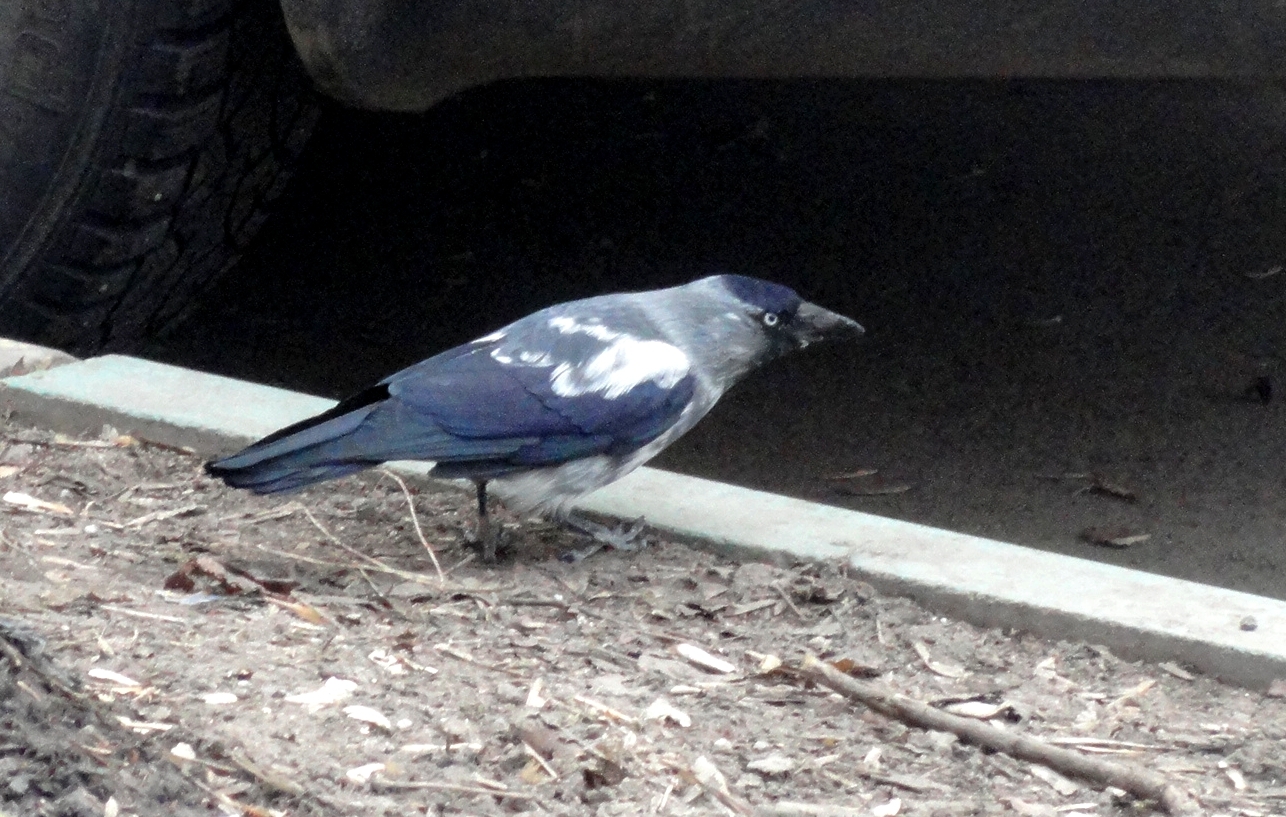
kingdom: Animalia
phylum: Chordata
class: Aves
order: Passeriformes
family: Corvidae
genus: Coloeus
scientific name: Coloeus monedula
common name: Western jackdaw
